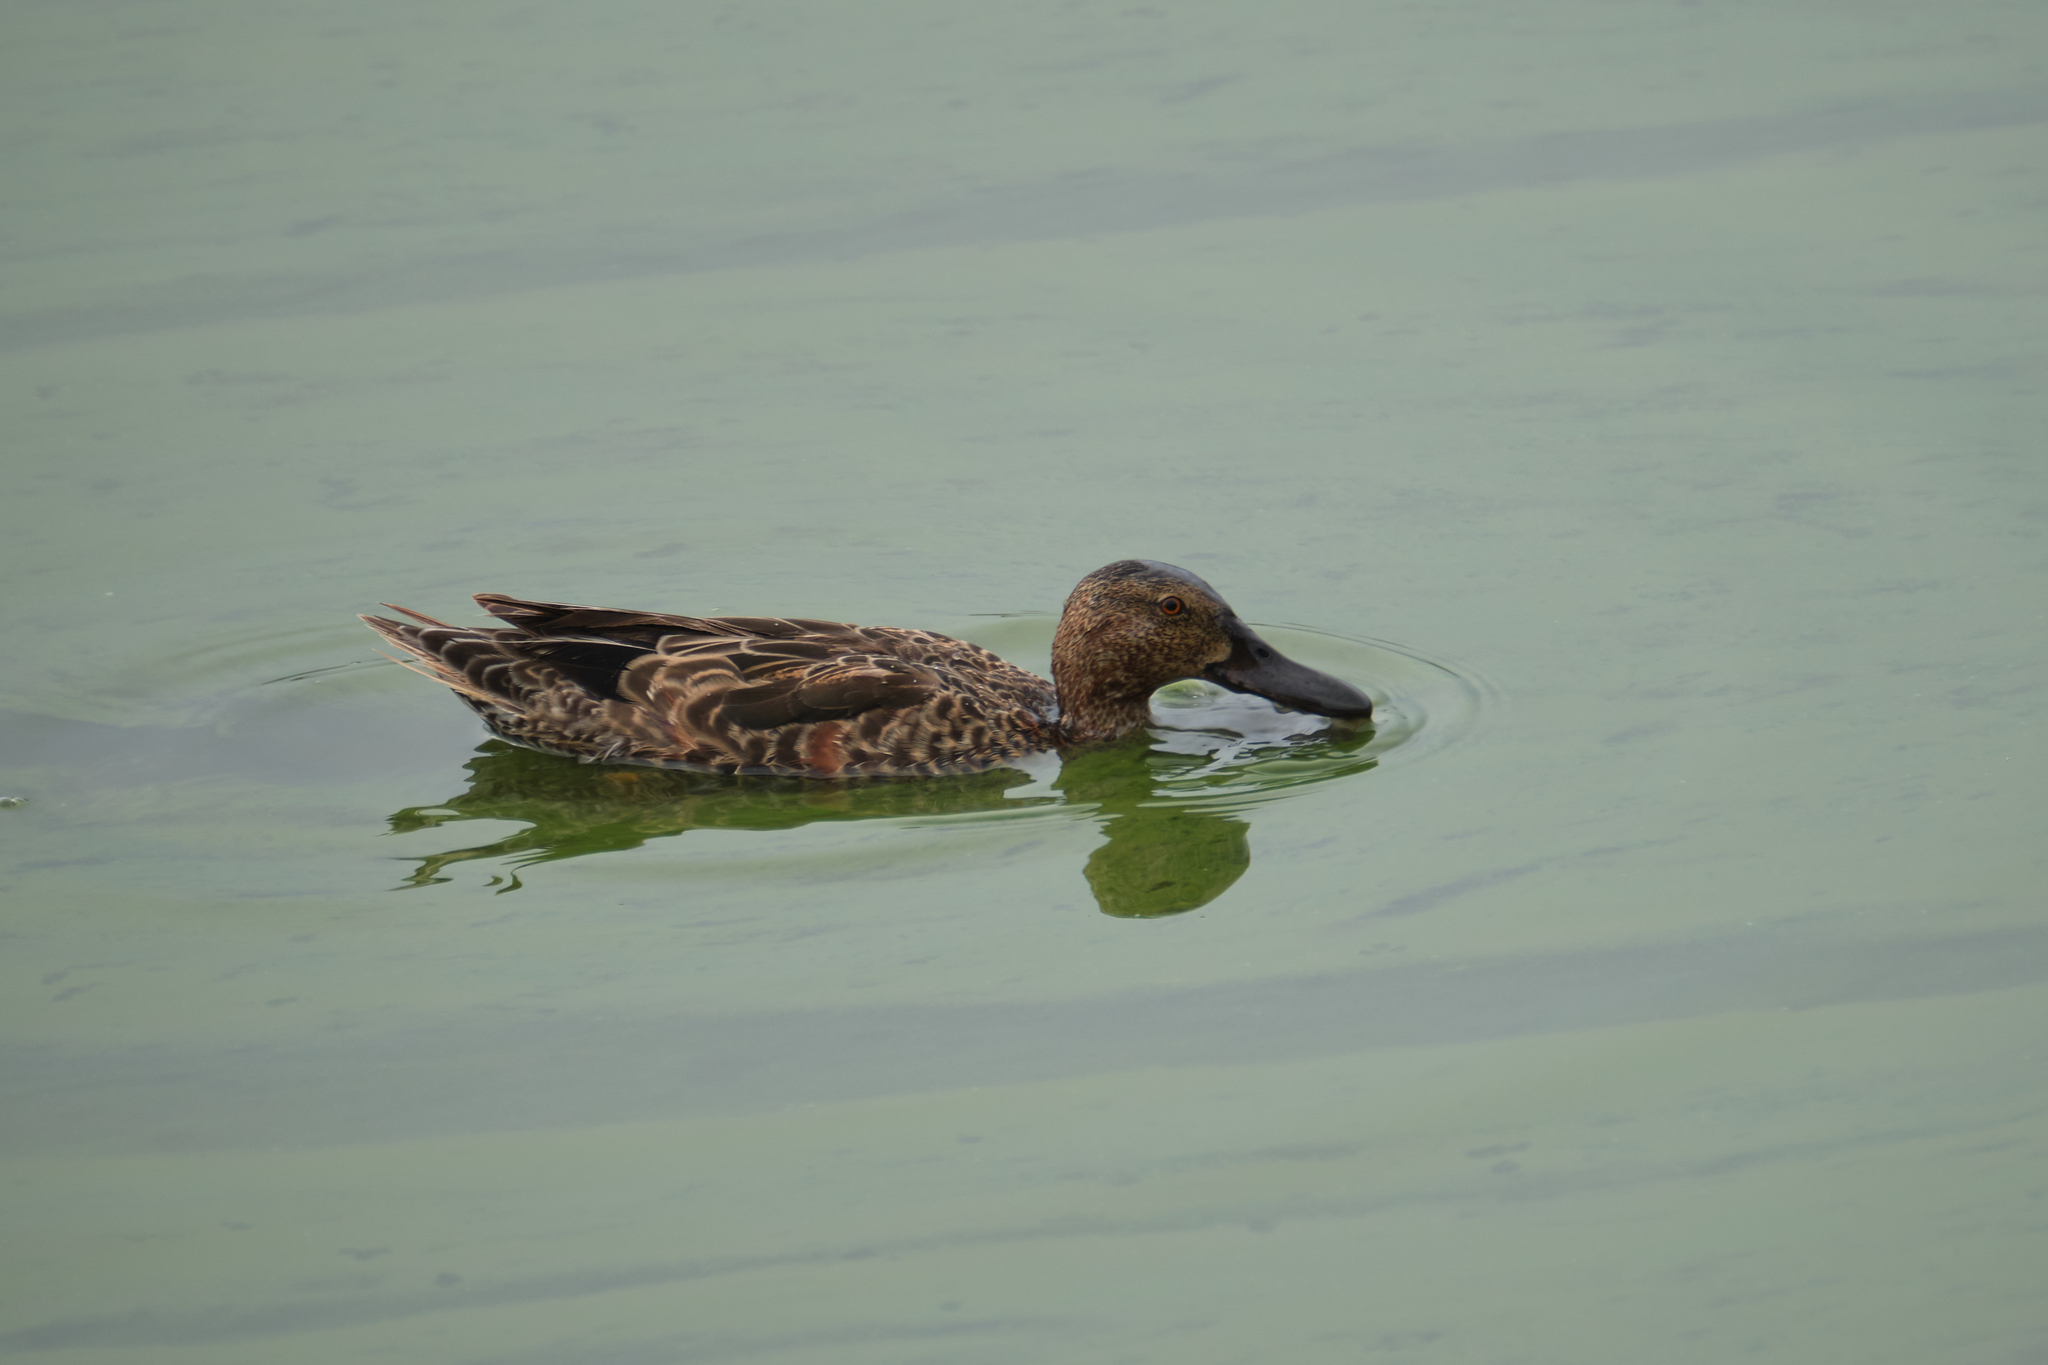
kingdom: Animalia
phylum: Chordata
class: Aves
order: Anseriformes
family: Anatidae
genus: Spatula
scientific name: Spatula clypeata
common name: Northern shoveler
